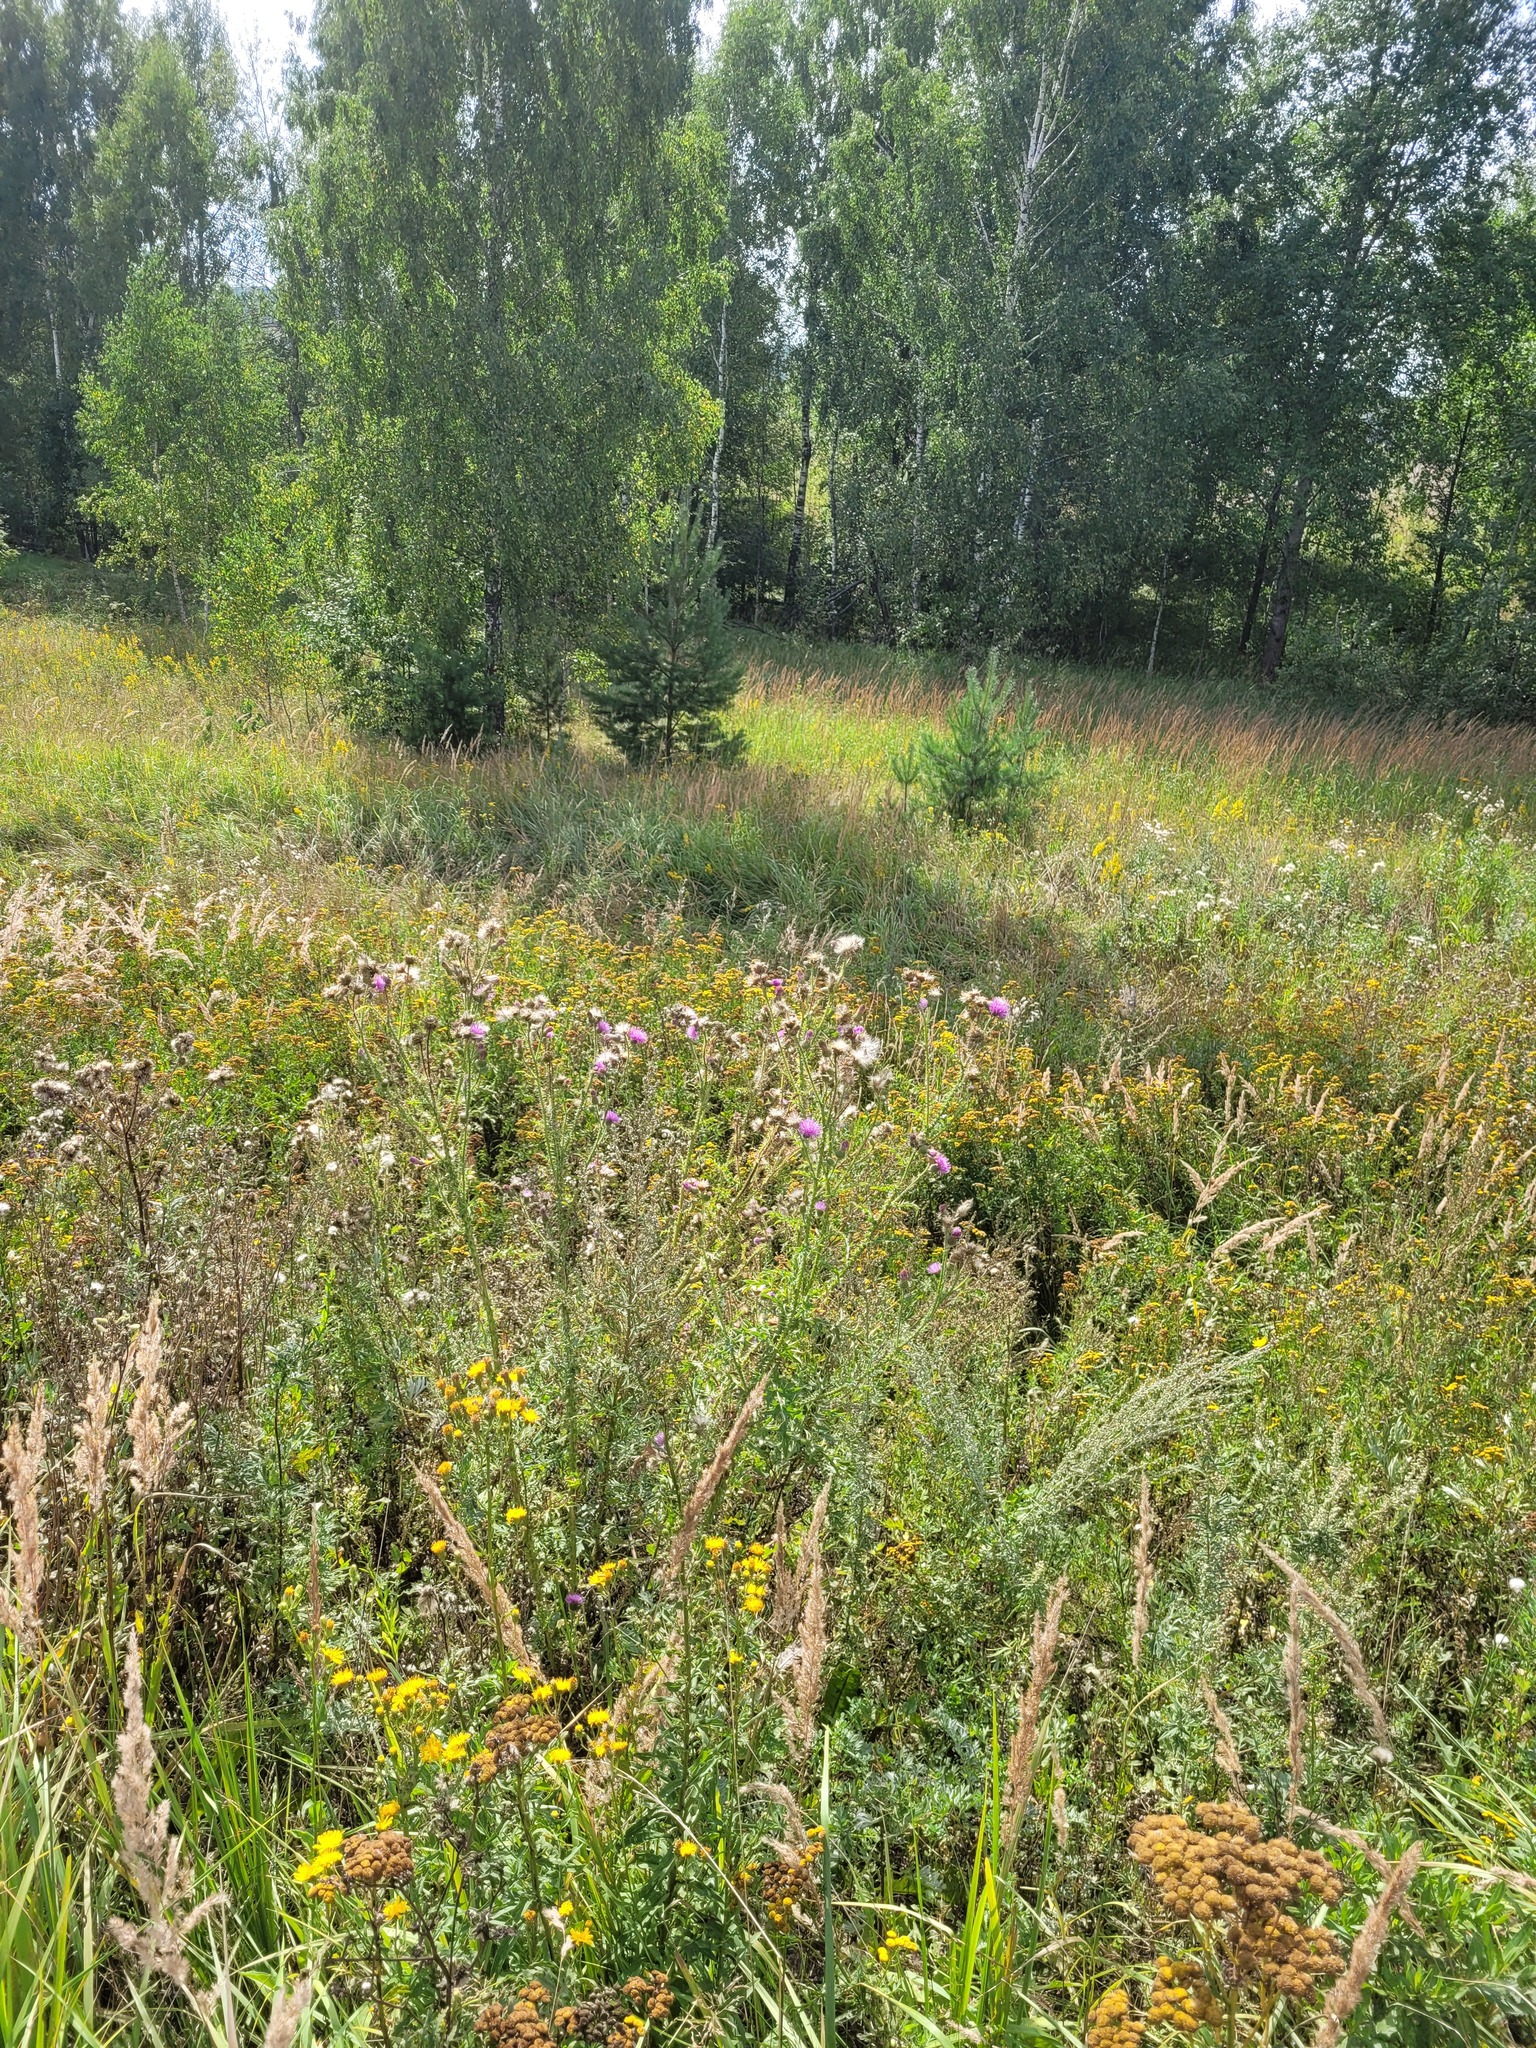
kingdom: Plantae
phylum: Tracheophyta
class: Magnoliopsida
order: Asterales
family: Asteraceae
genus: Carduus
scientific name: Carduus acanthoides
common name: Plumeless thistle
